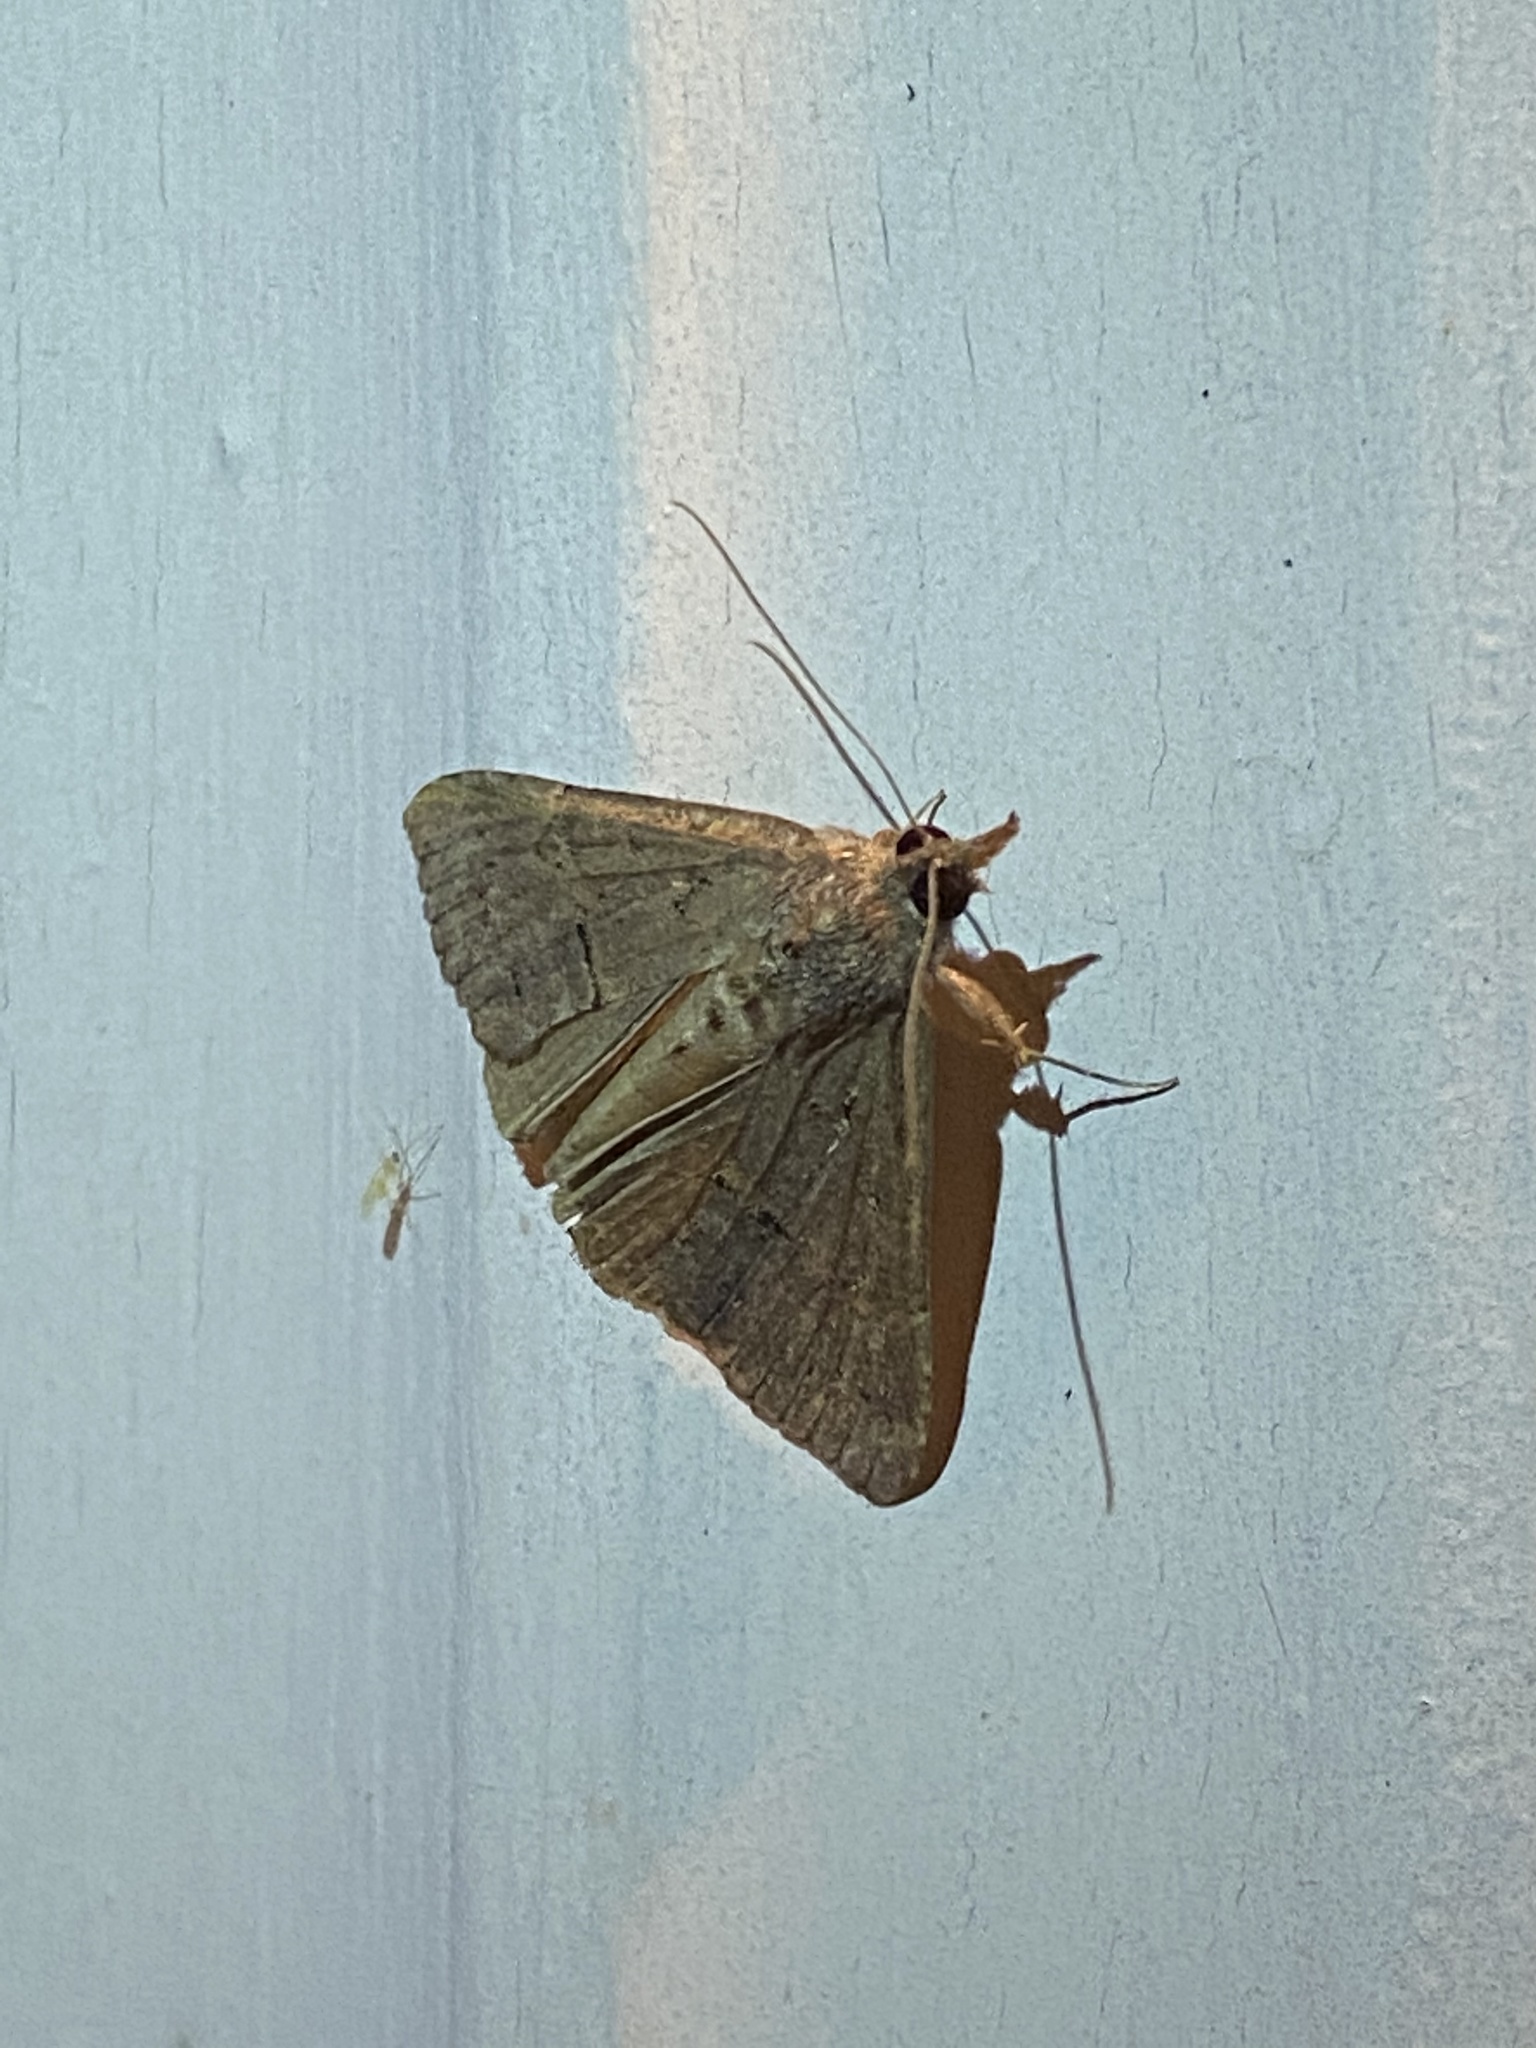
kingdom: Animalia
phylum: Arthropoda
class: Insecta
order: Lepidoptera
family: Erebidae
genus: Hypena
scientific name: Hypena scabra
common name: Green cloverworm
